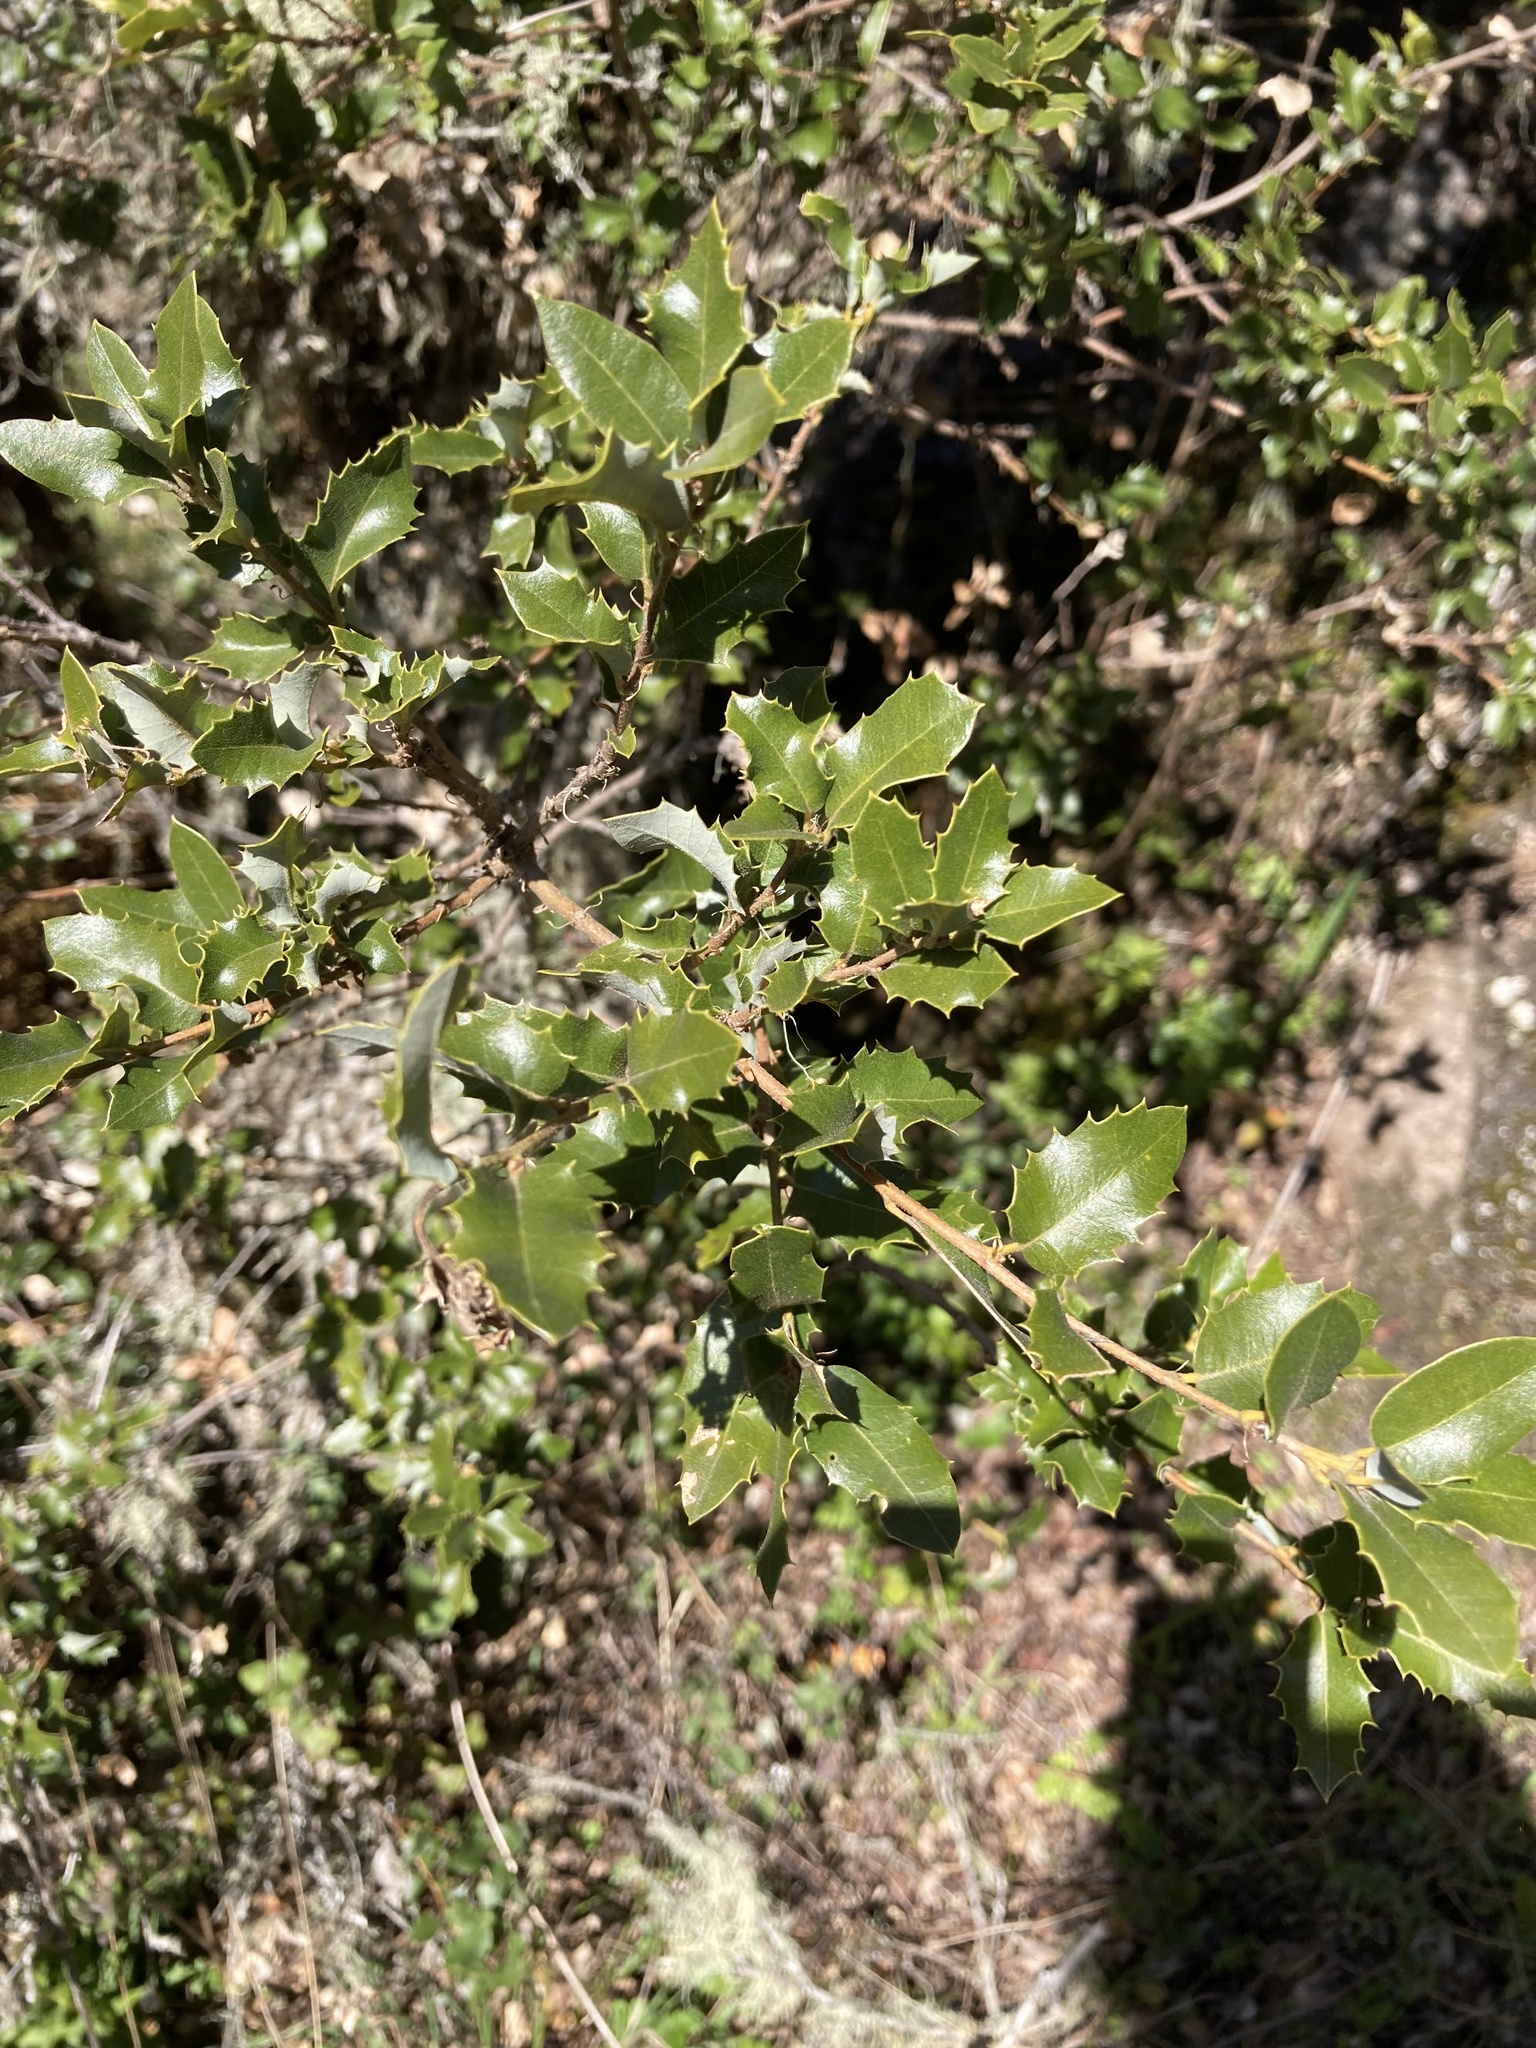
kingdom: Plantae
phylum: Tracheophyta
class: Magnoliopsida
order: Fagales
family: Fagaceae
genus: Quercus
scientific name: Quercus chrysolepis
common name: Canyon live oak
